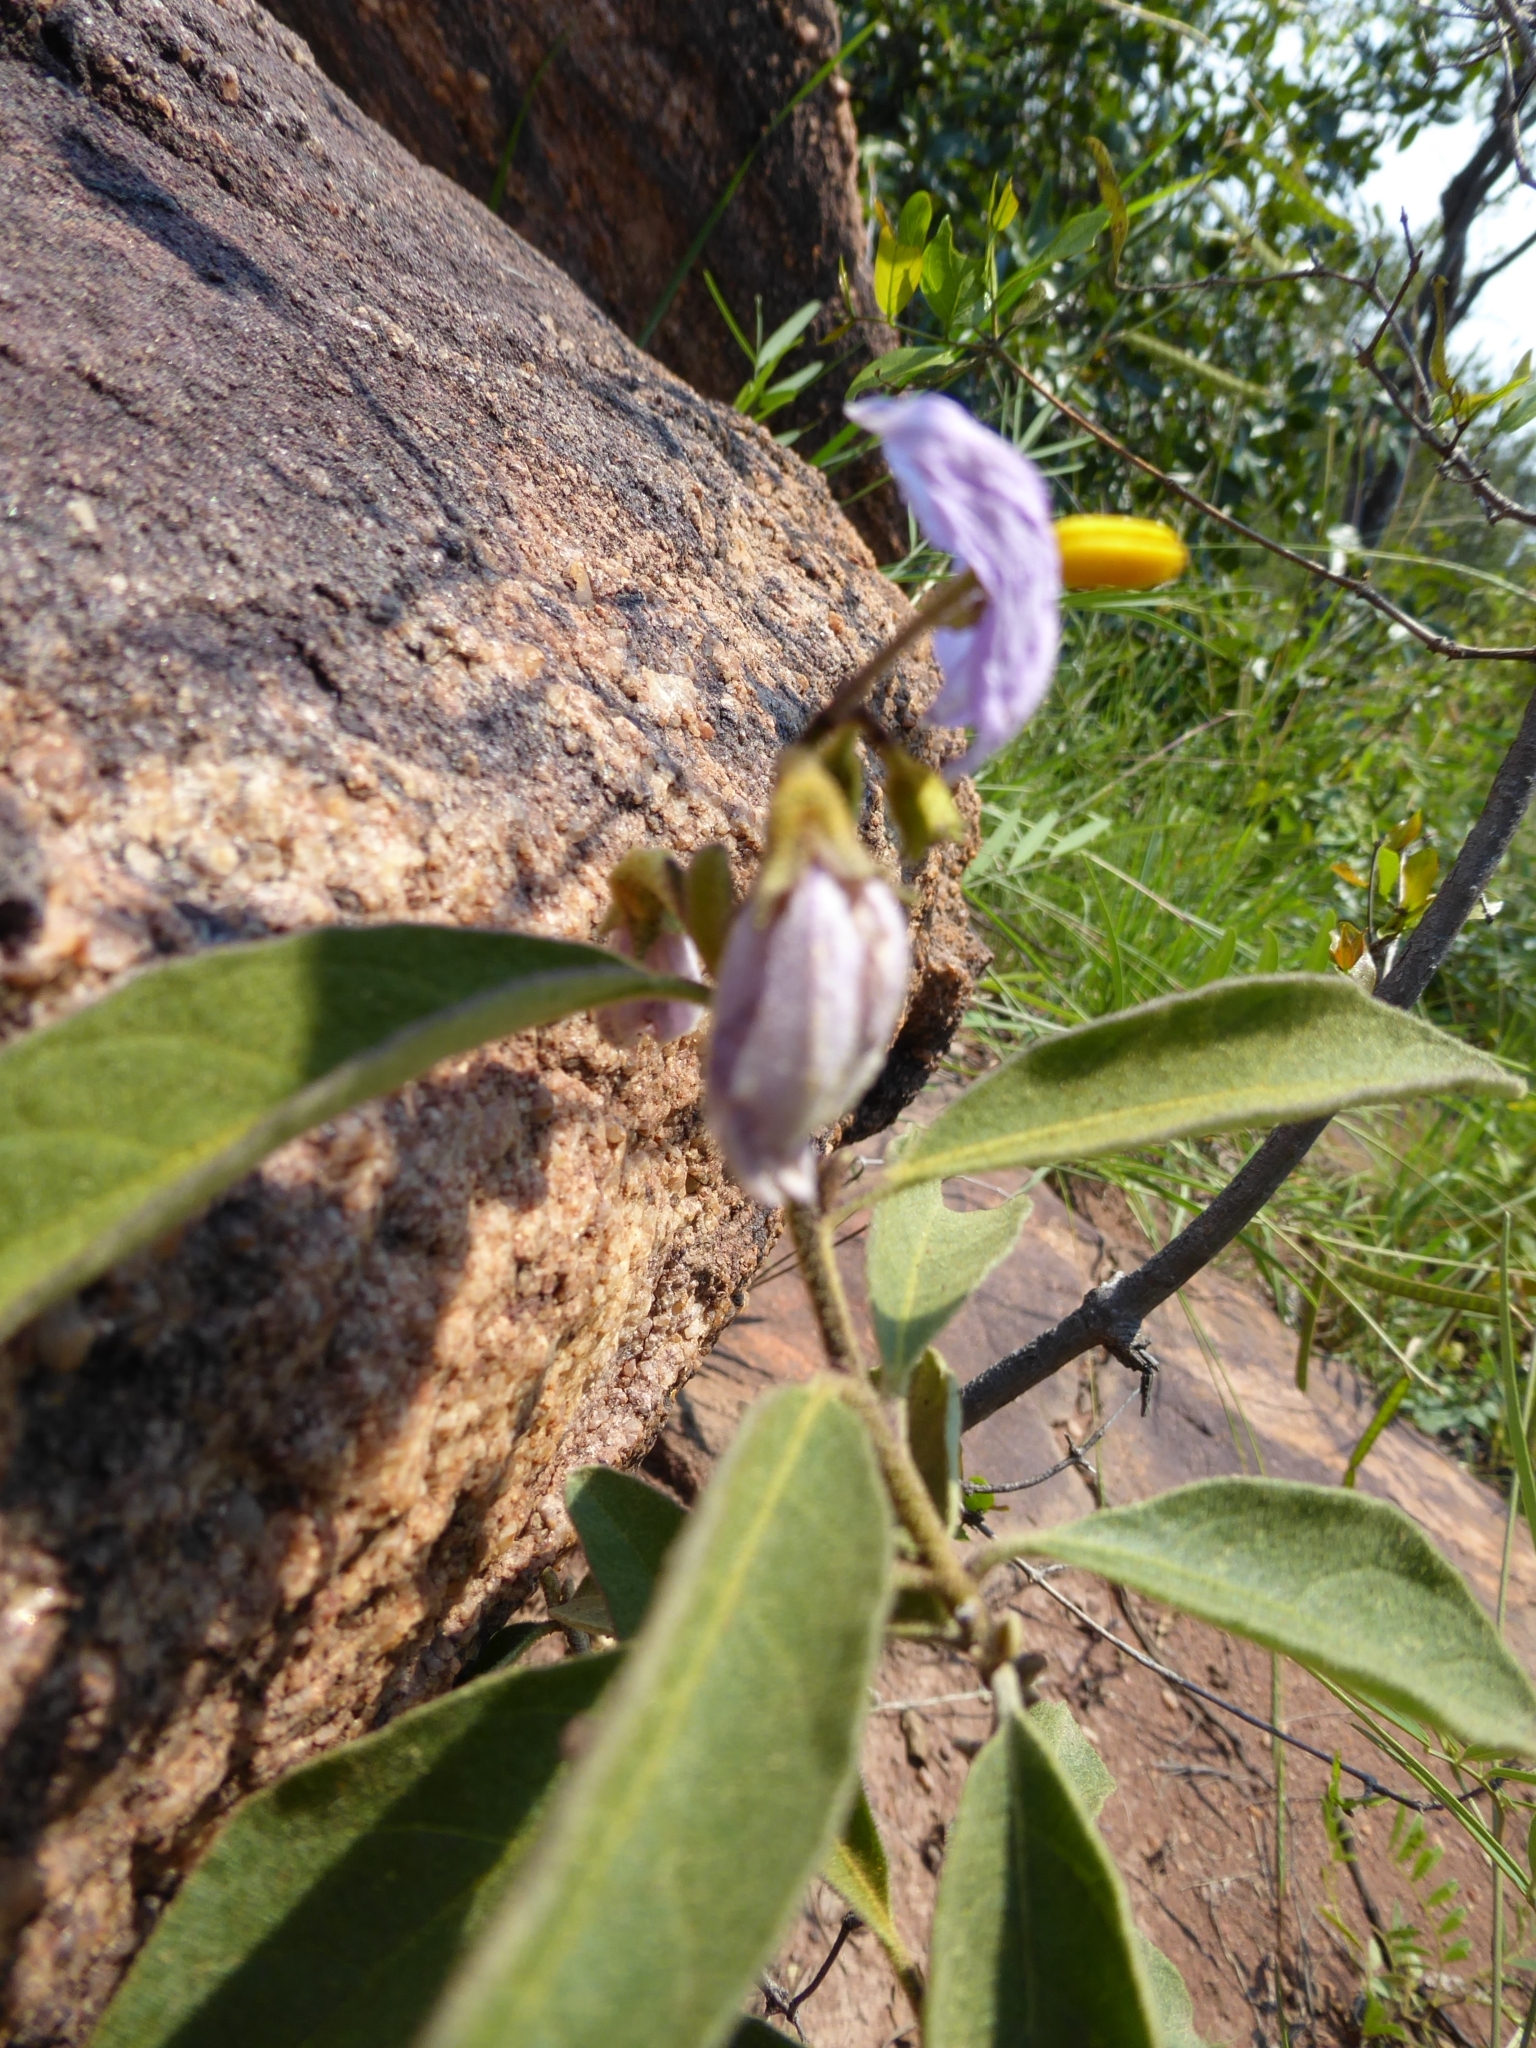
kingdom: Plantae
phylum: Tracheophyta
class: Magnoliopsida
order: Solanales
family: Solanaceae
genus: Solanum
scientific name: Solanum campylacanthum
